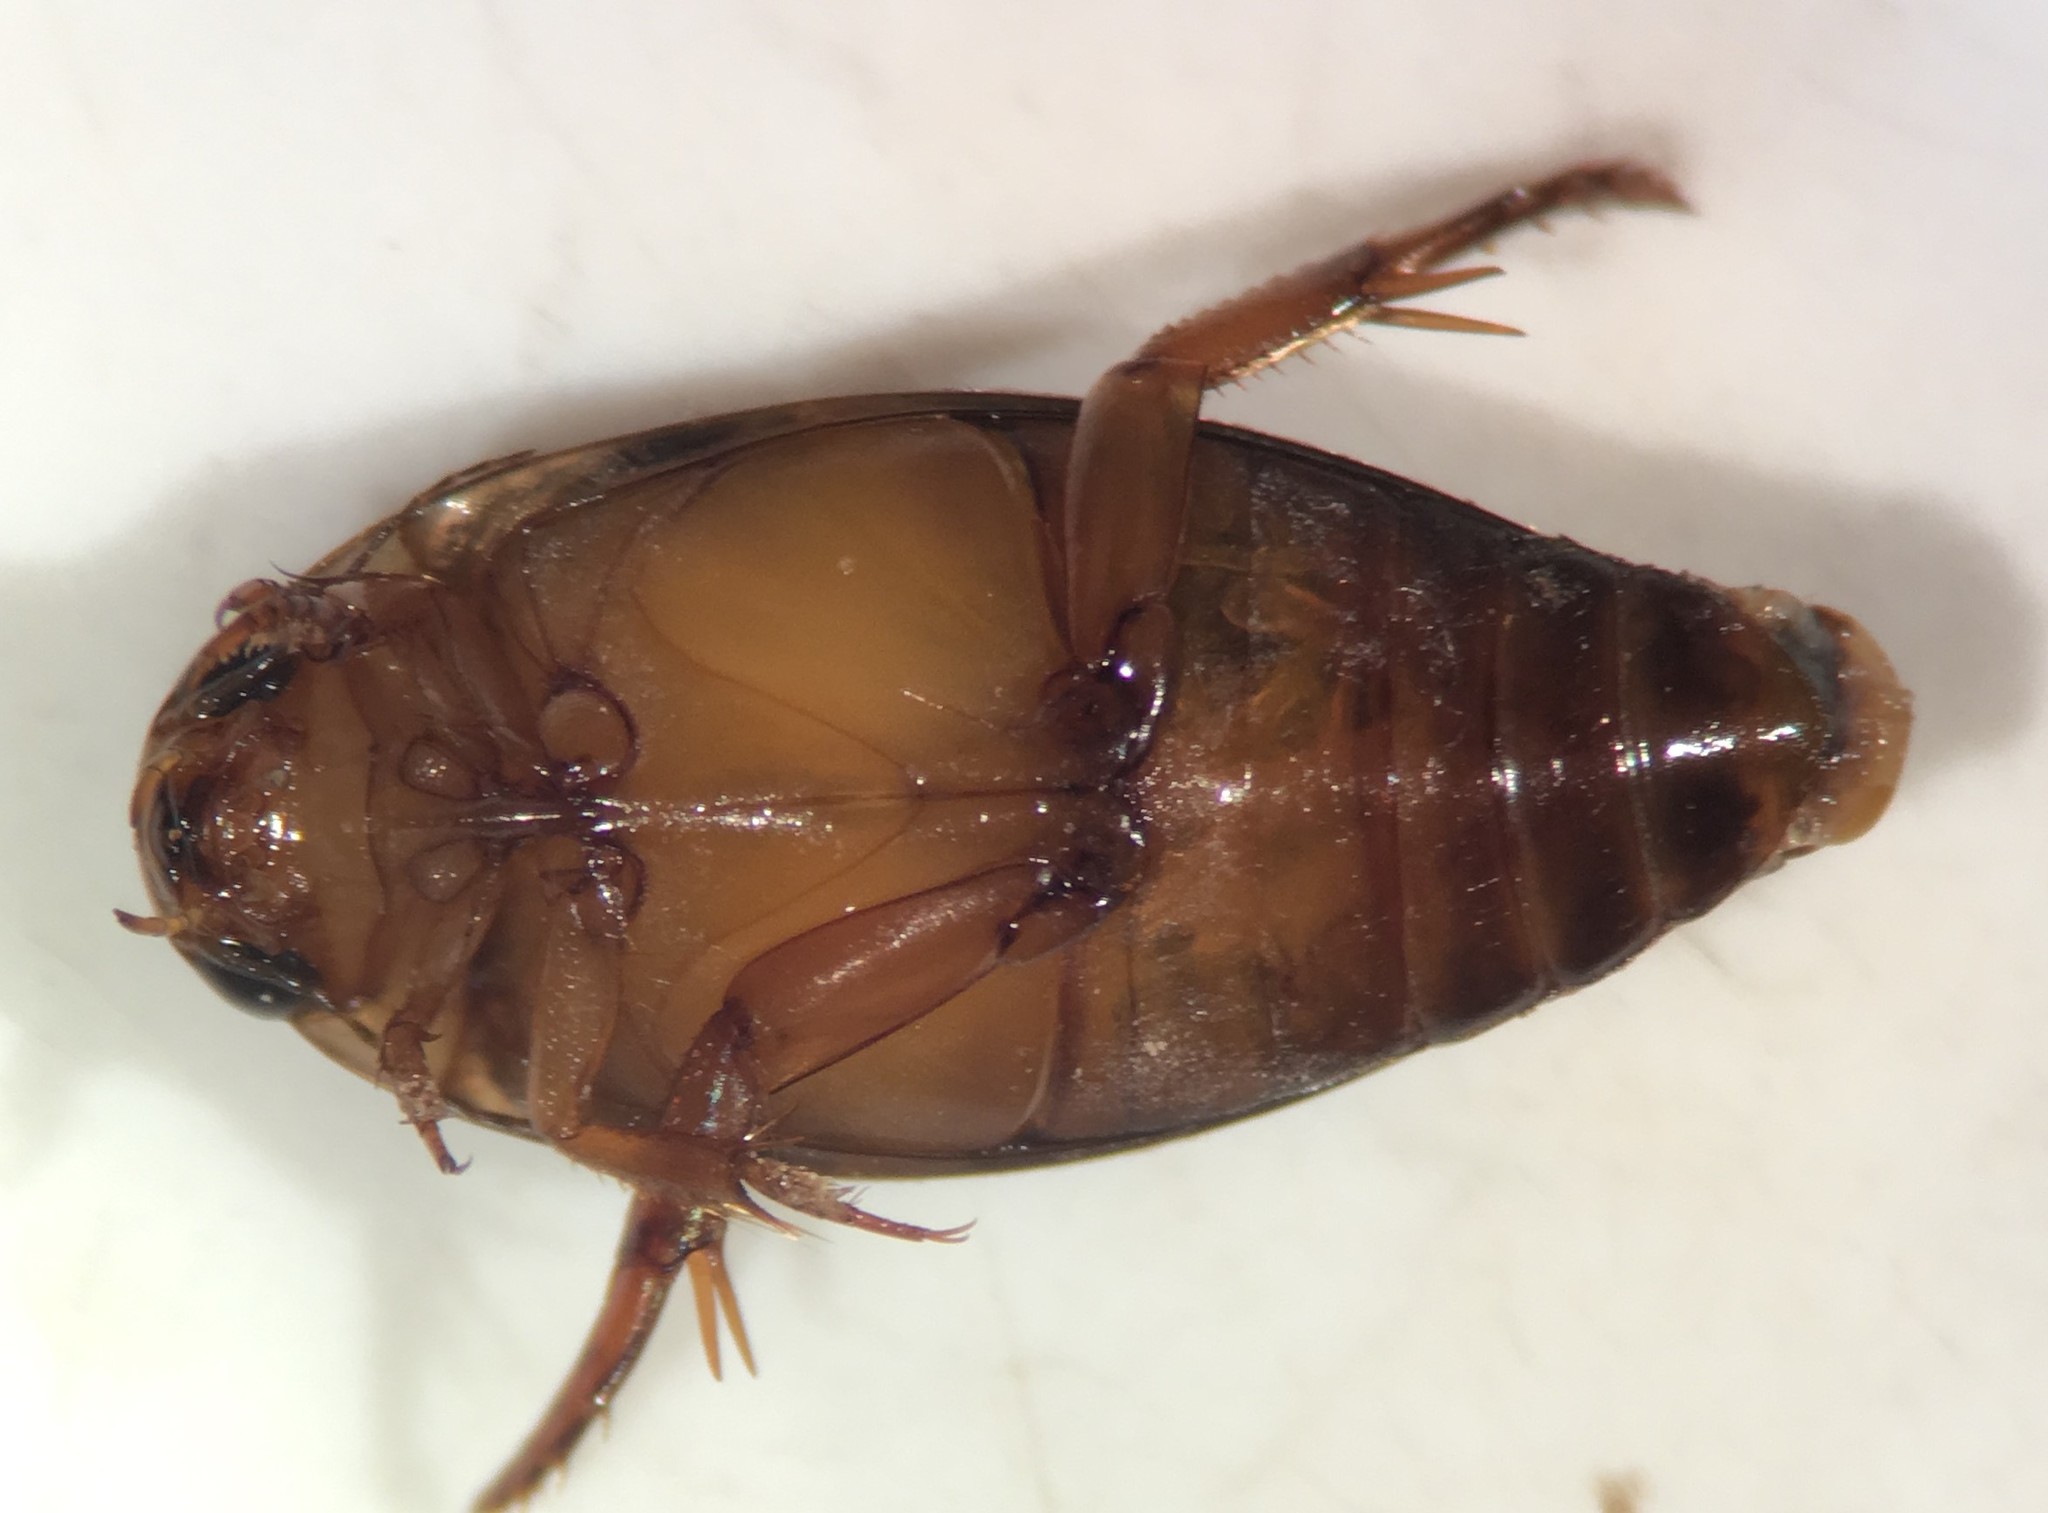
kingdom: Animalia
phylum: Arthropoda
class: Insecta
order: Coleoptera
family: Dytiscidae
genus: Coptotomus
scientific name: Coptotomus longulus
